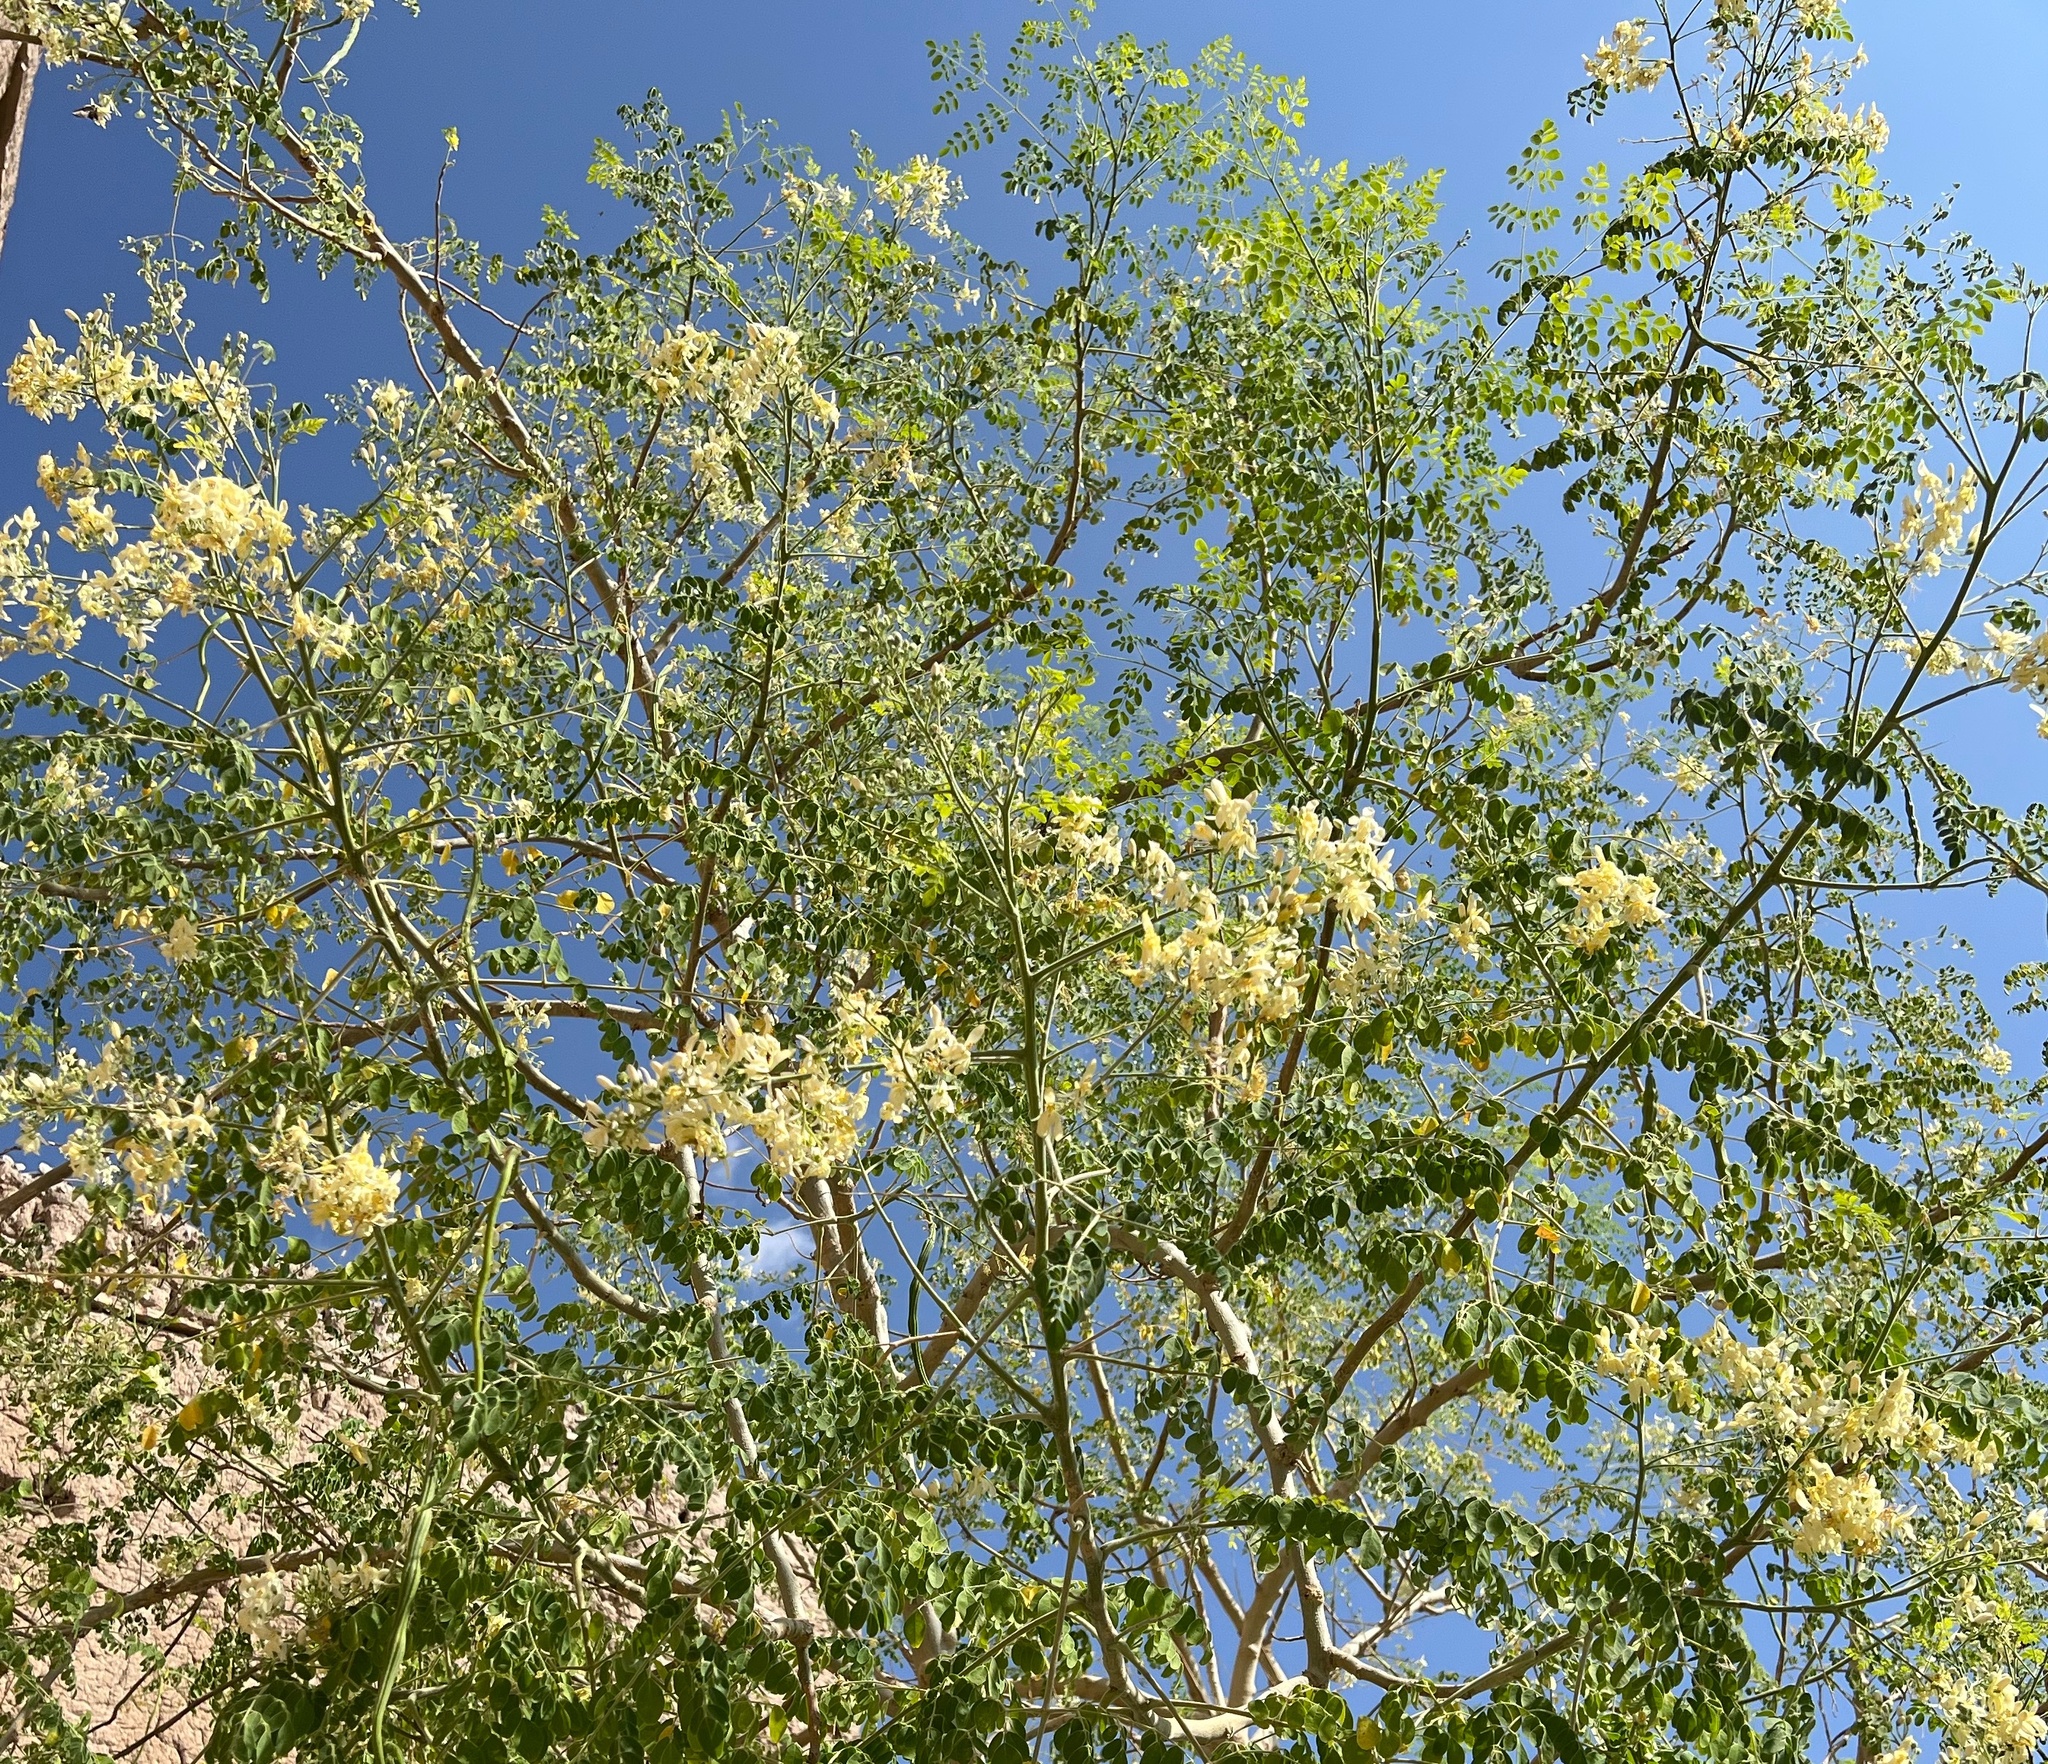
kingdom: Plantae
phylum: Tracheophyta
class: Magnoliopsida
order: Brassicales
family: Moringaceae
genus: Moringa
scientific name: Moringa oleifera
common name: Horseradish-tree
